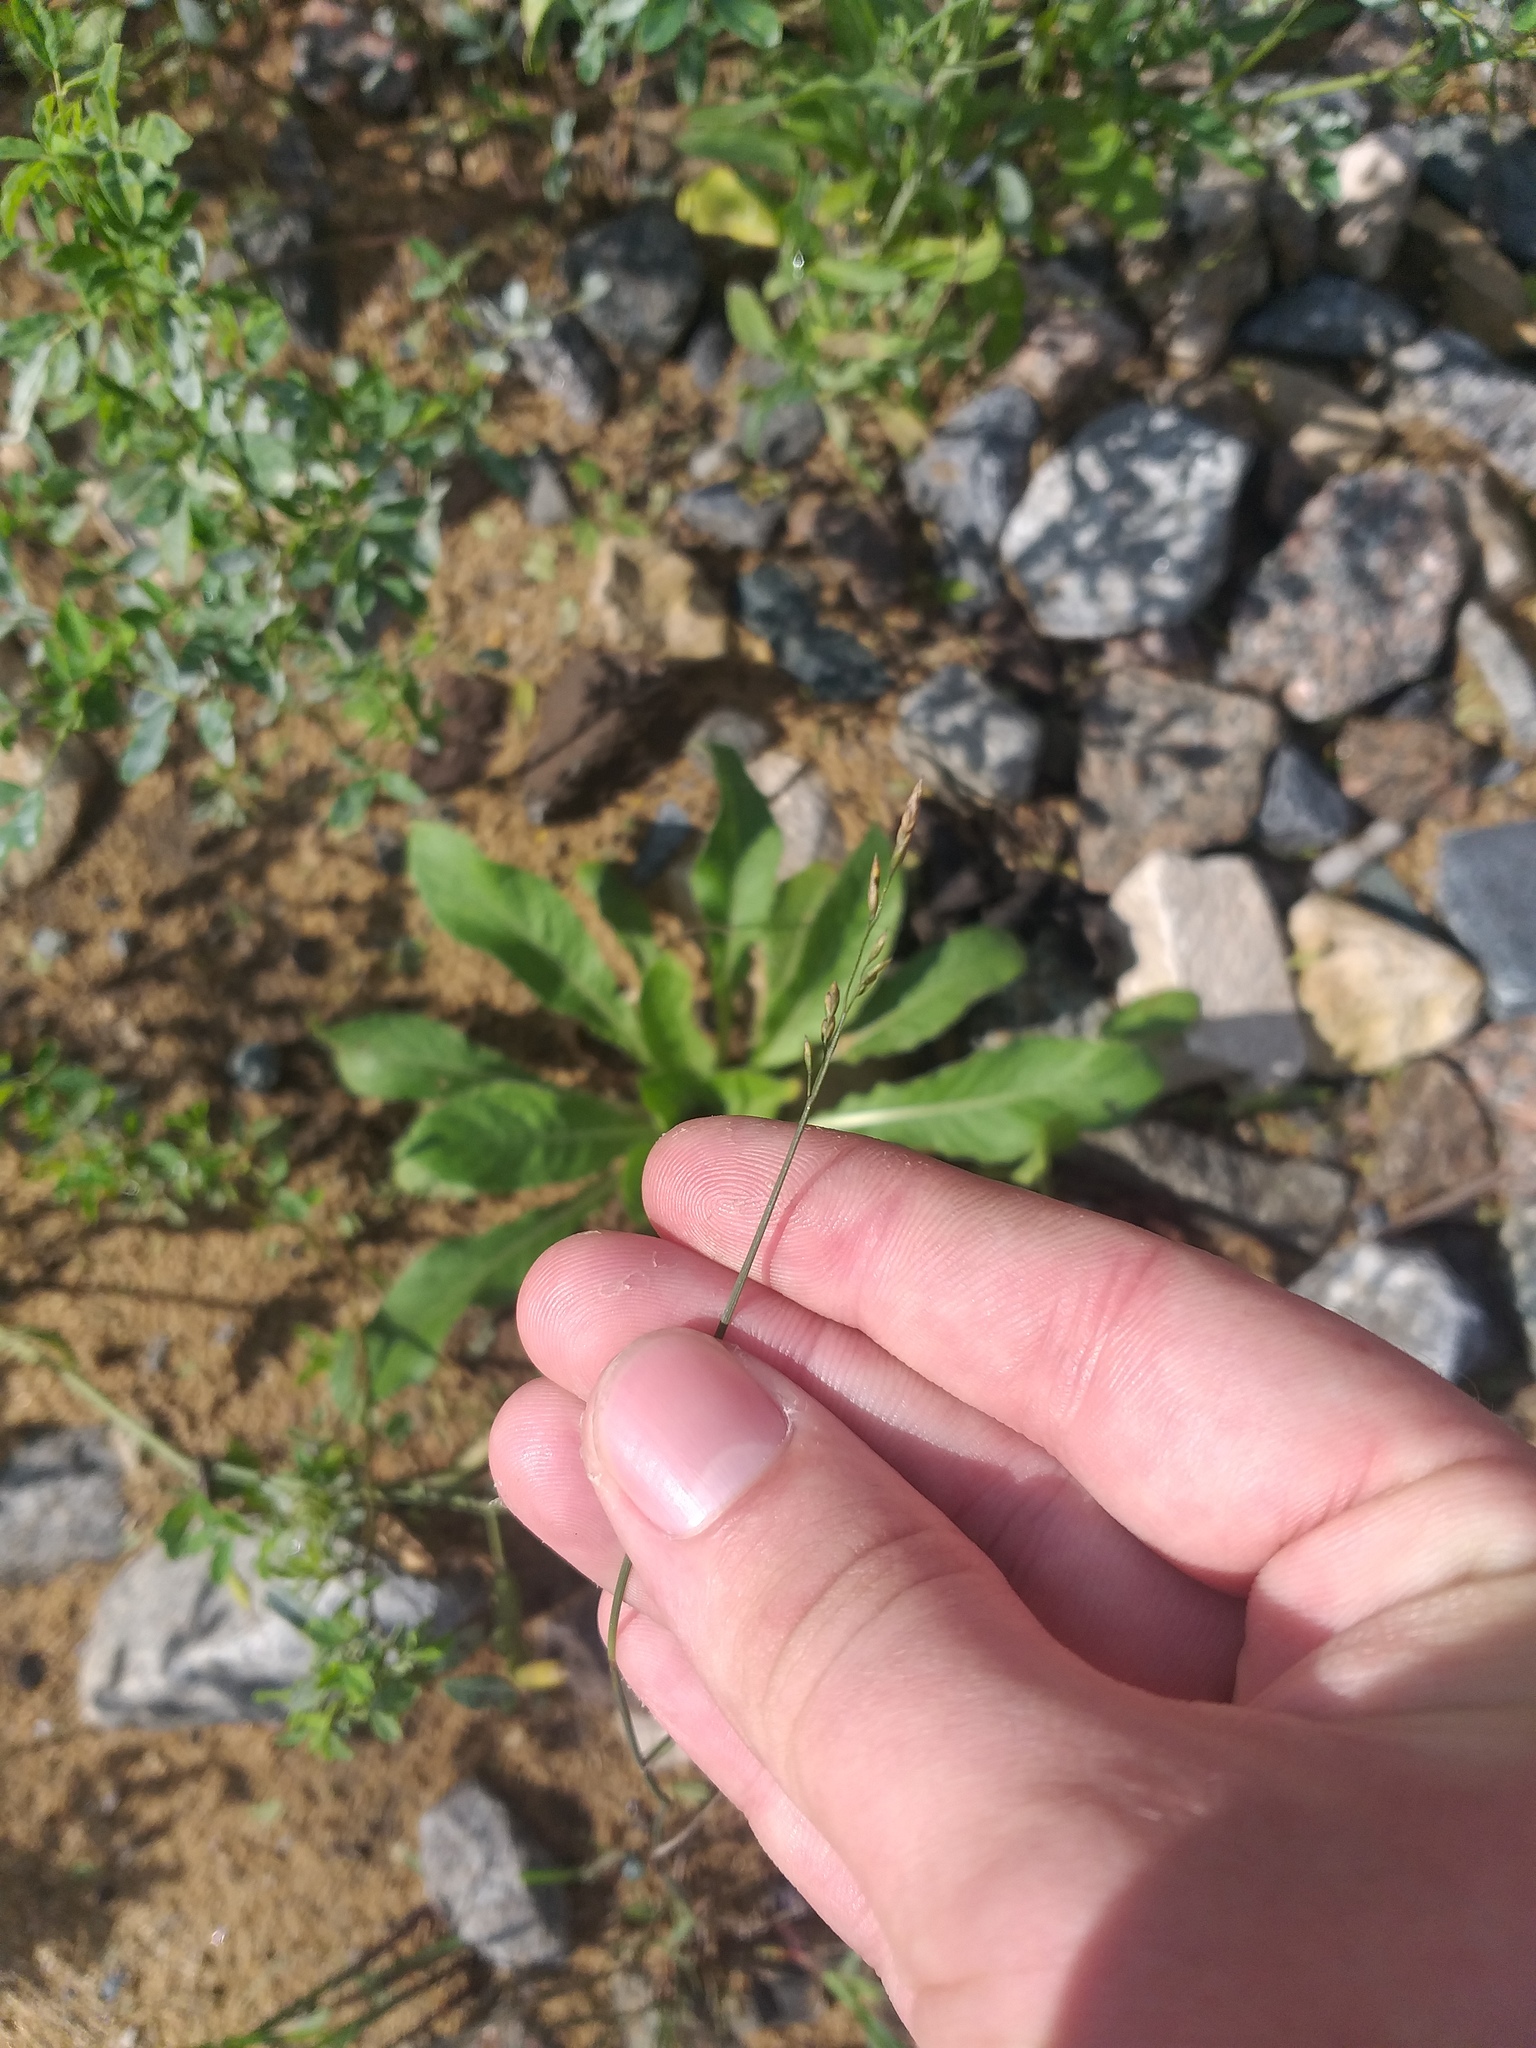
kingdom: Plantae
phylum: Tracheophyta
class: Liliopsida
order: Poales
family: Poaceae
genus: Poa
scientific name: Poa compressa
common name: Canada bluegrass
